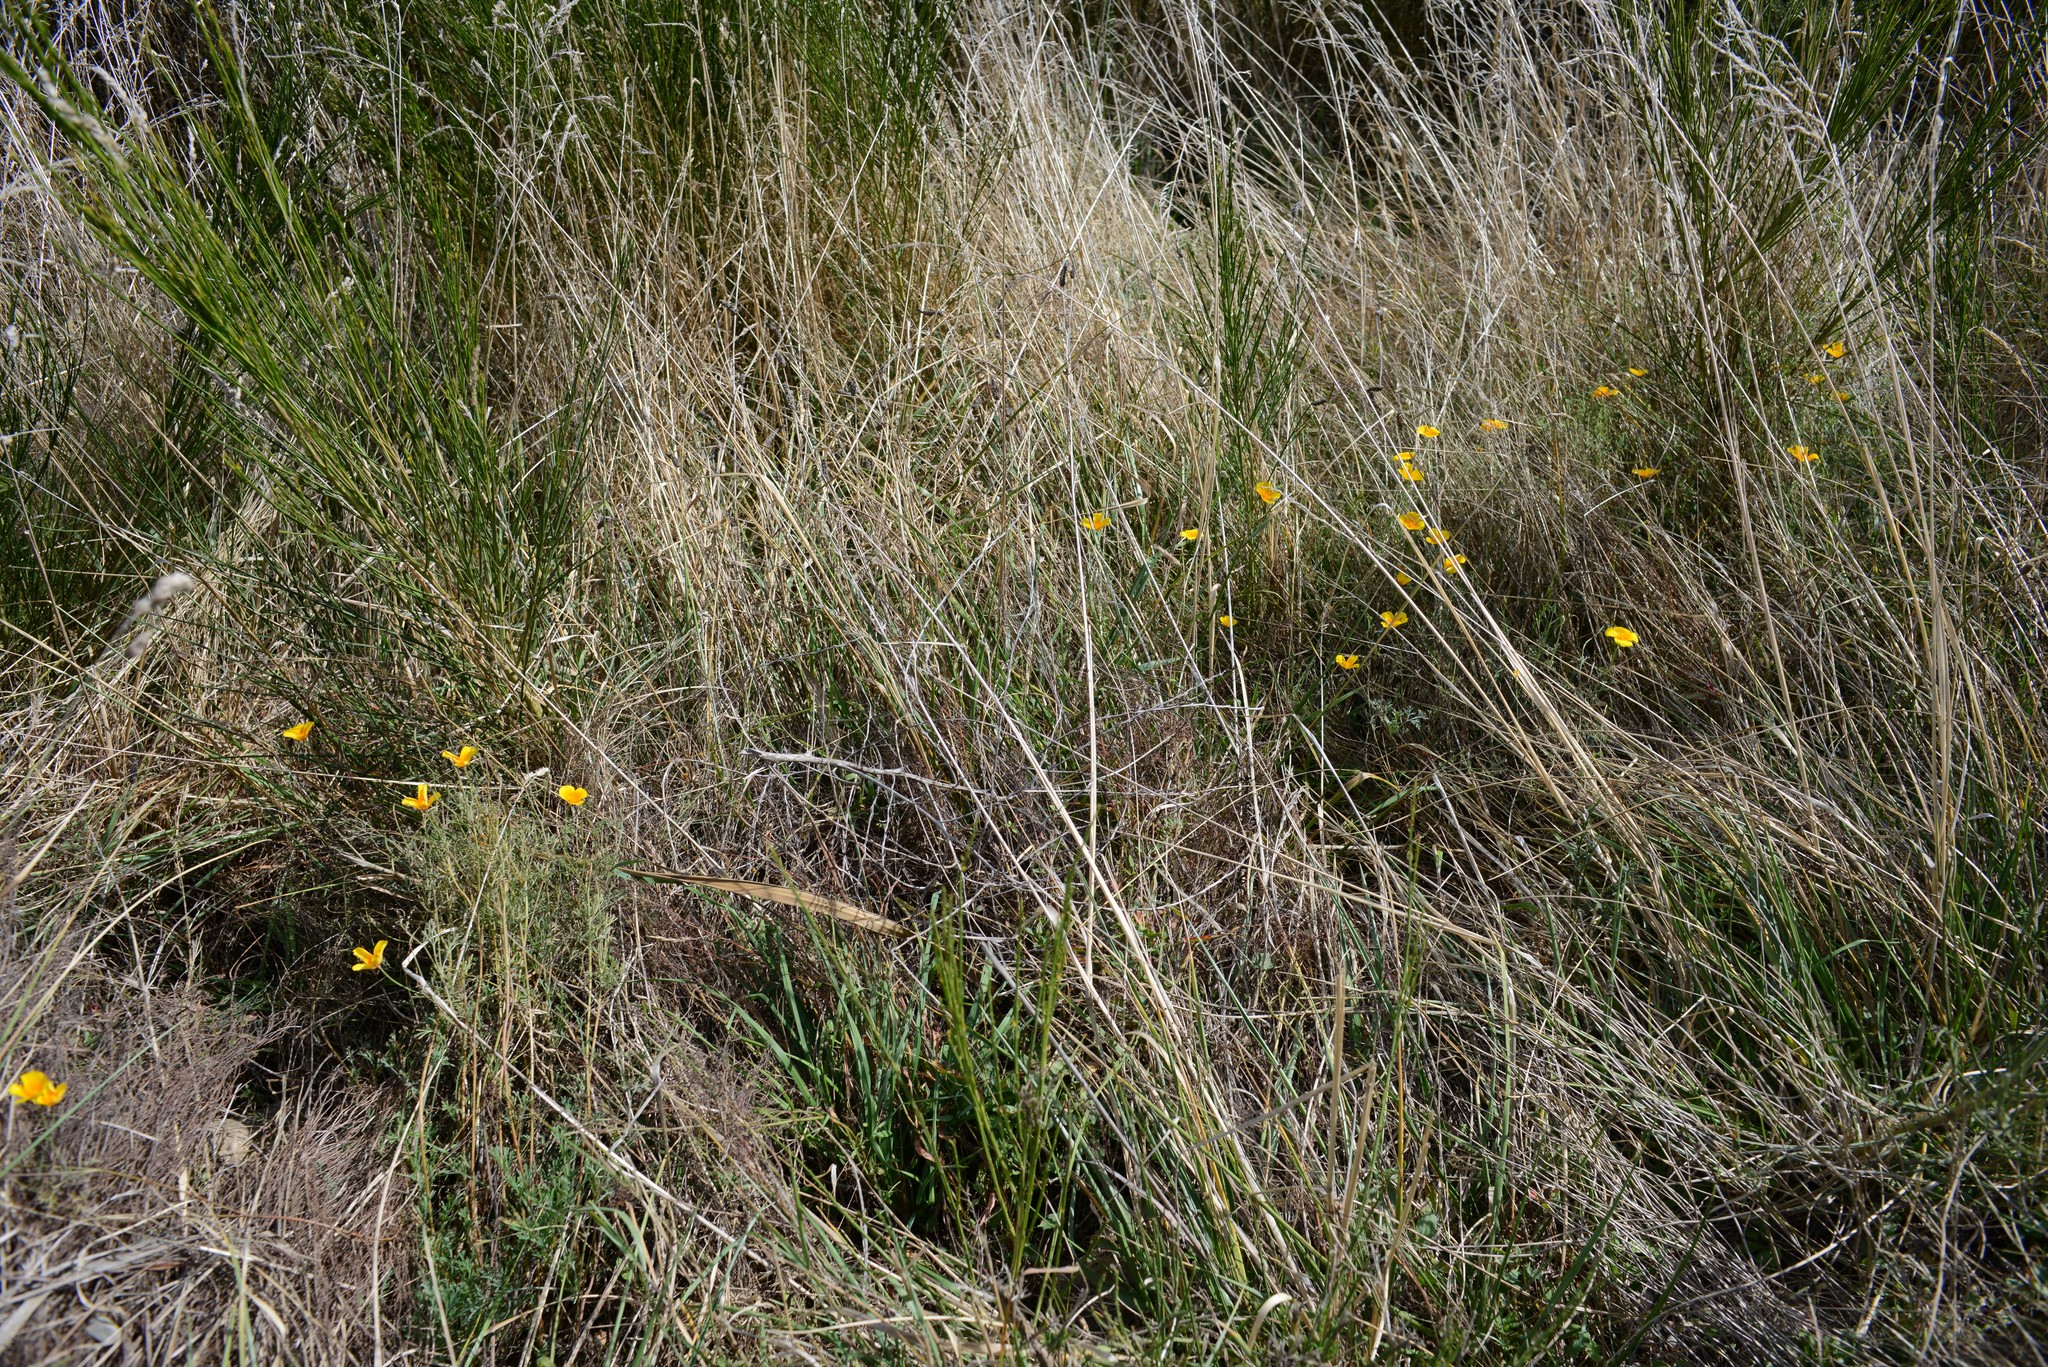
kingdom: Plantae
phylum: Tracheophyta
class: Magnoliopsida
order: Ranunculales
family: Papaveraceae
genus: Eschscholzia
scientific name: Eschscholzia californica
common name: California poppy
